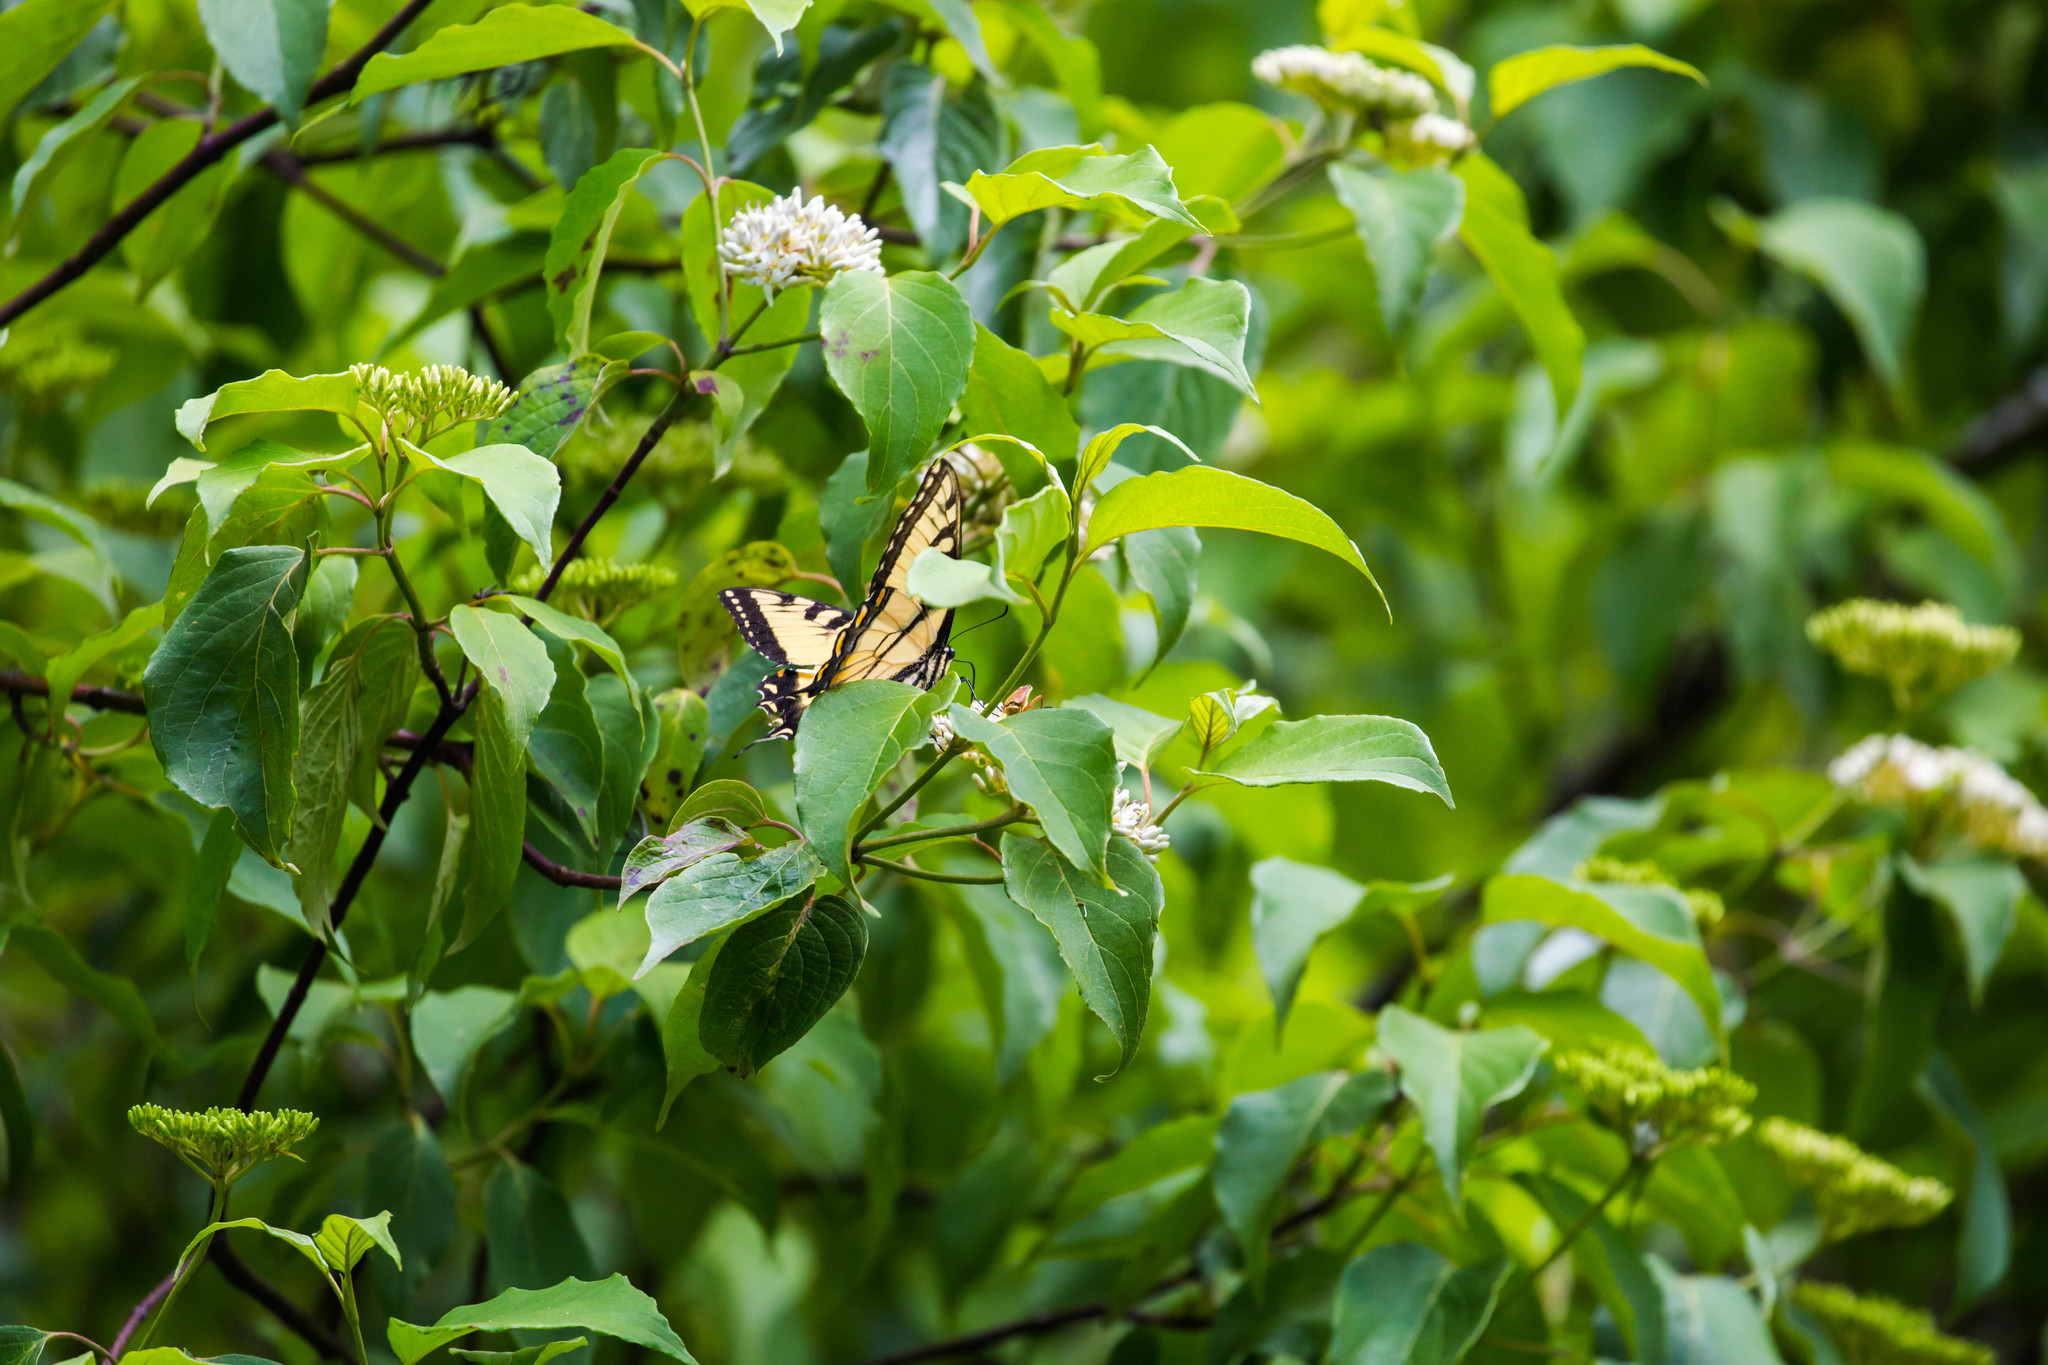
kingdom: Animalia
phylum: Arthropoda
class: Insecta
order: Lepidoptera
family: Papilionidae
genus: Papilio
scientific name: Papilio glaucus
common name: Tiger swallowtail
